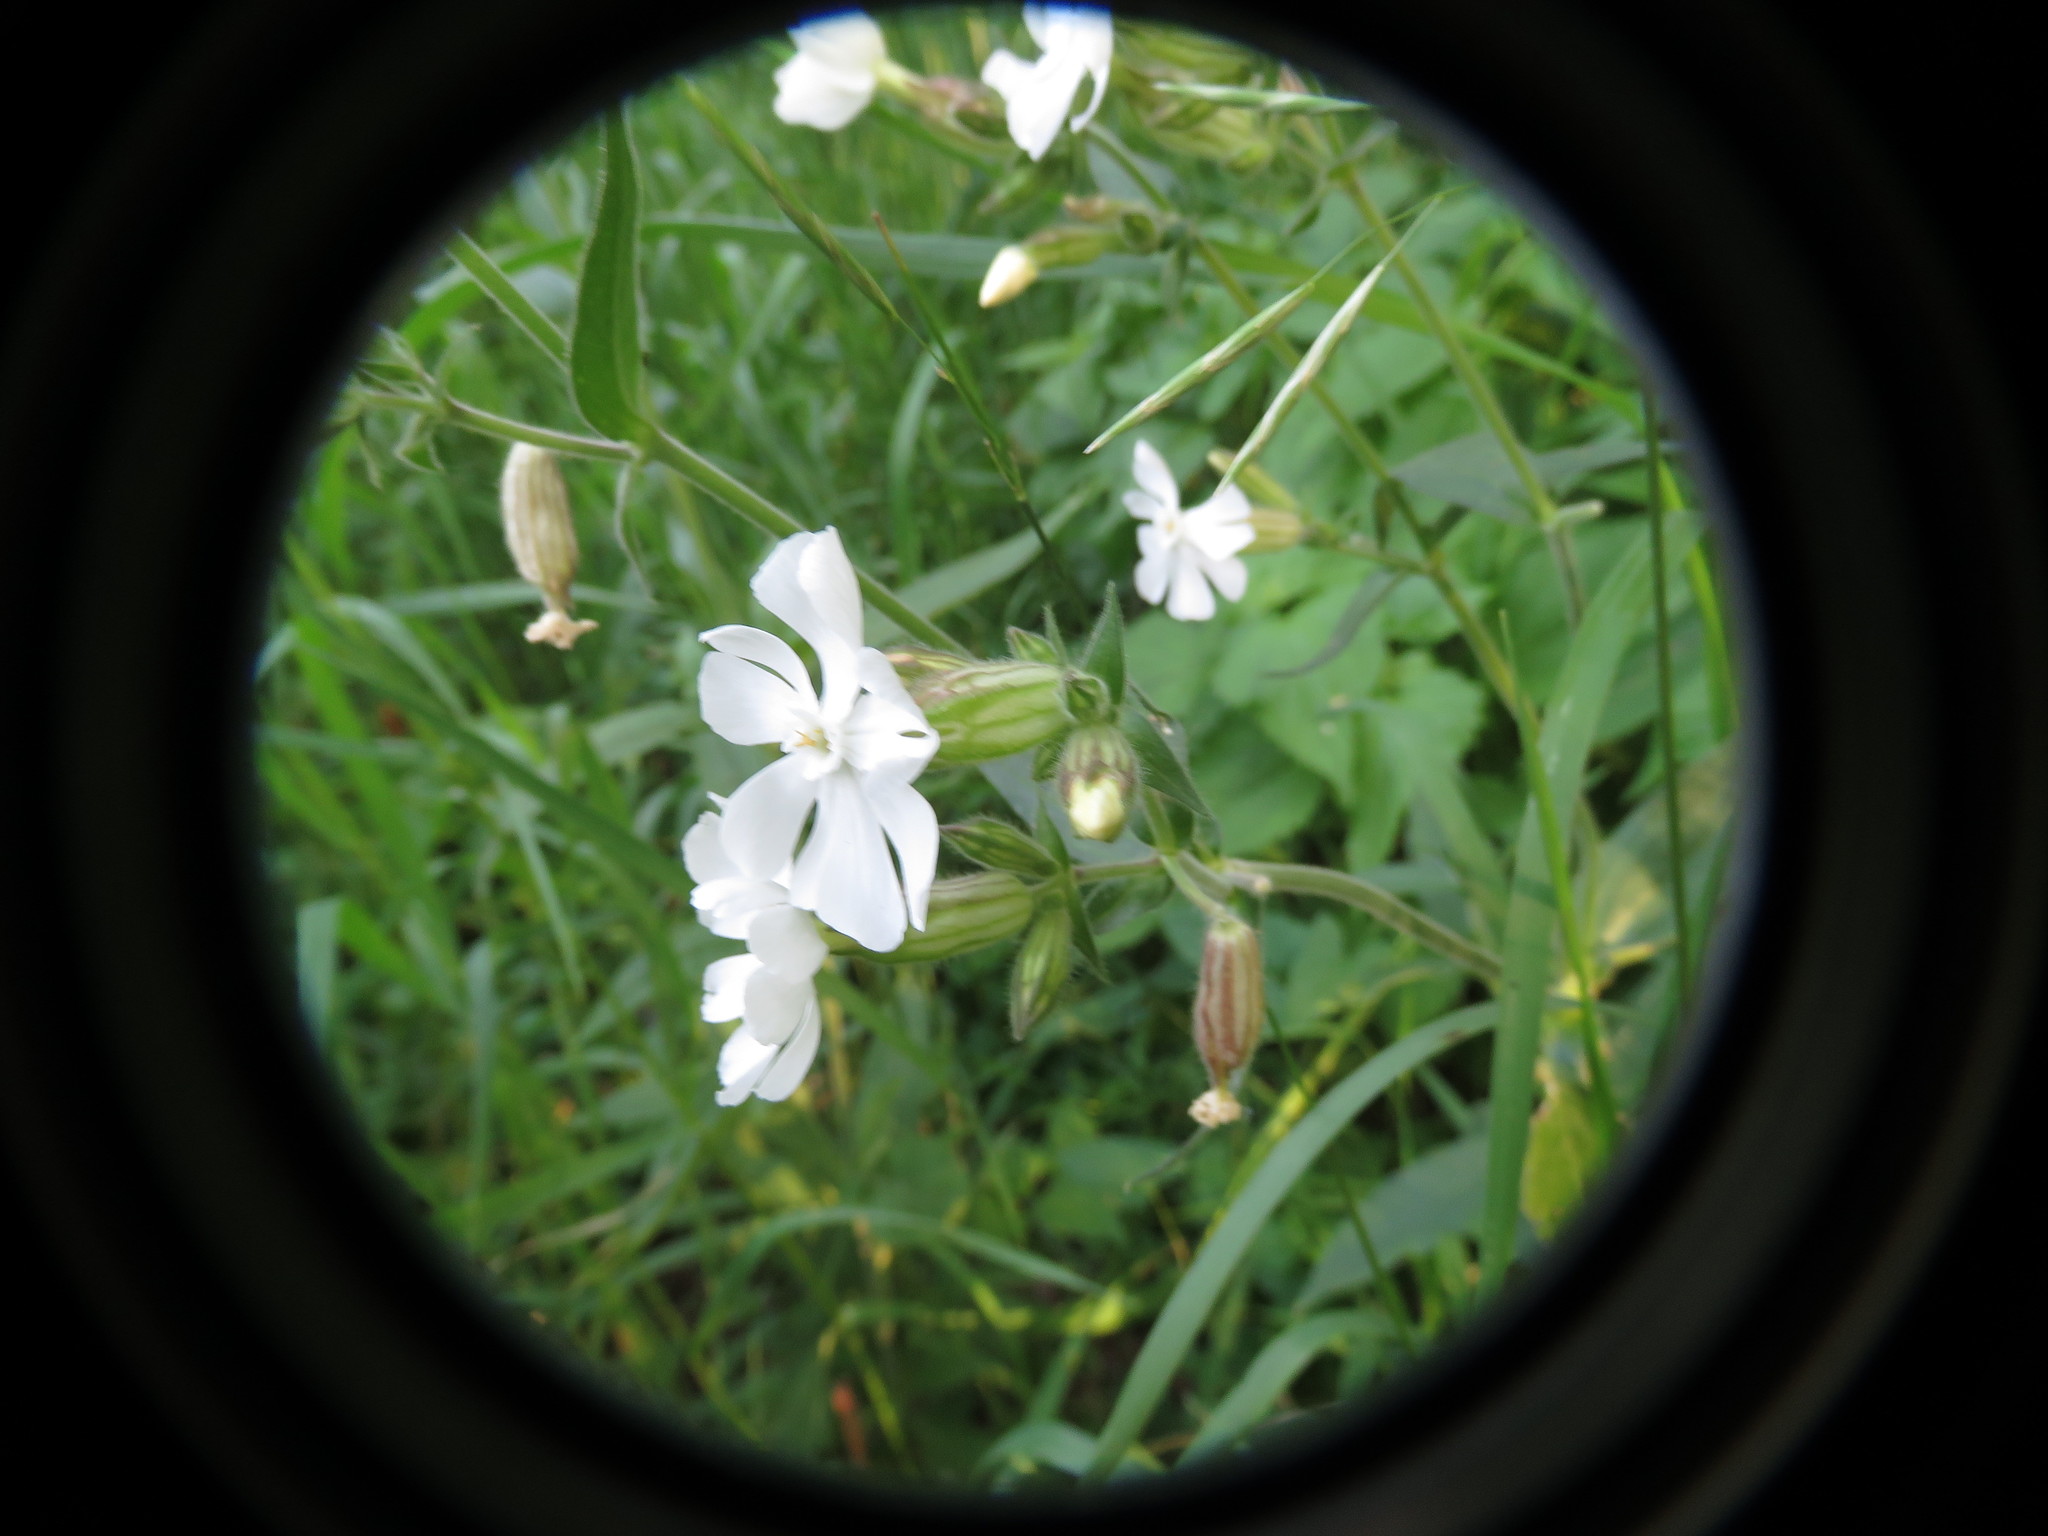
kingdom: Plantae
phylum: Tracheophyta
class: Magnoliopsida
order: Caryophyllales
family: Caryophyllaceae
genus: Silene
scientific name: Silene latifolia
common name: White campion
